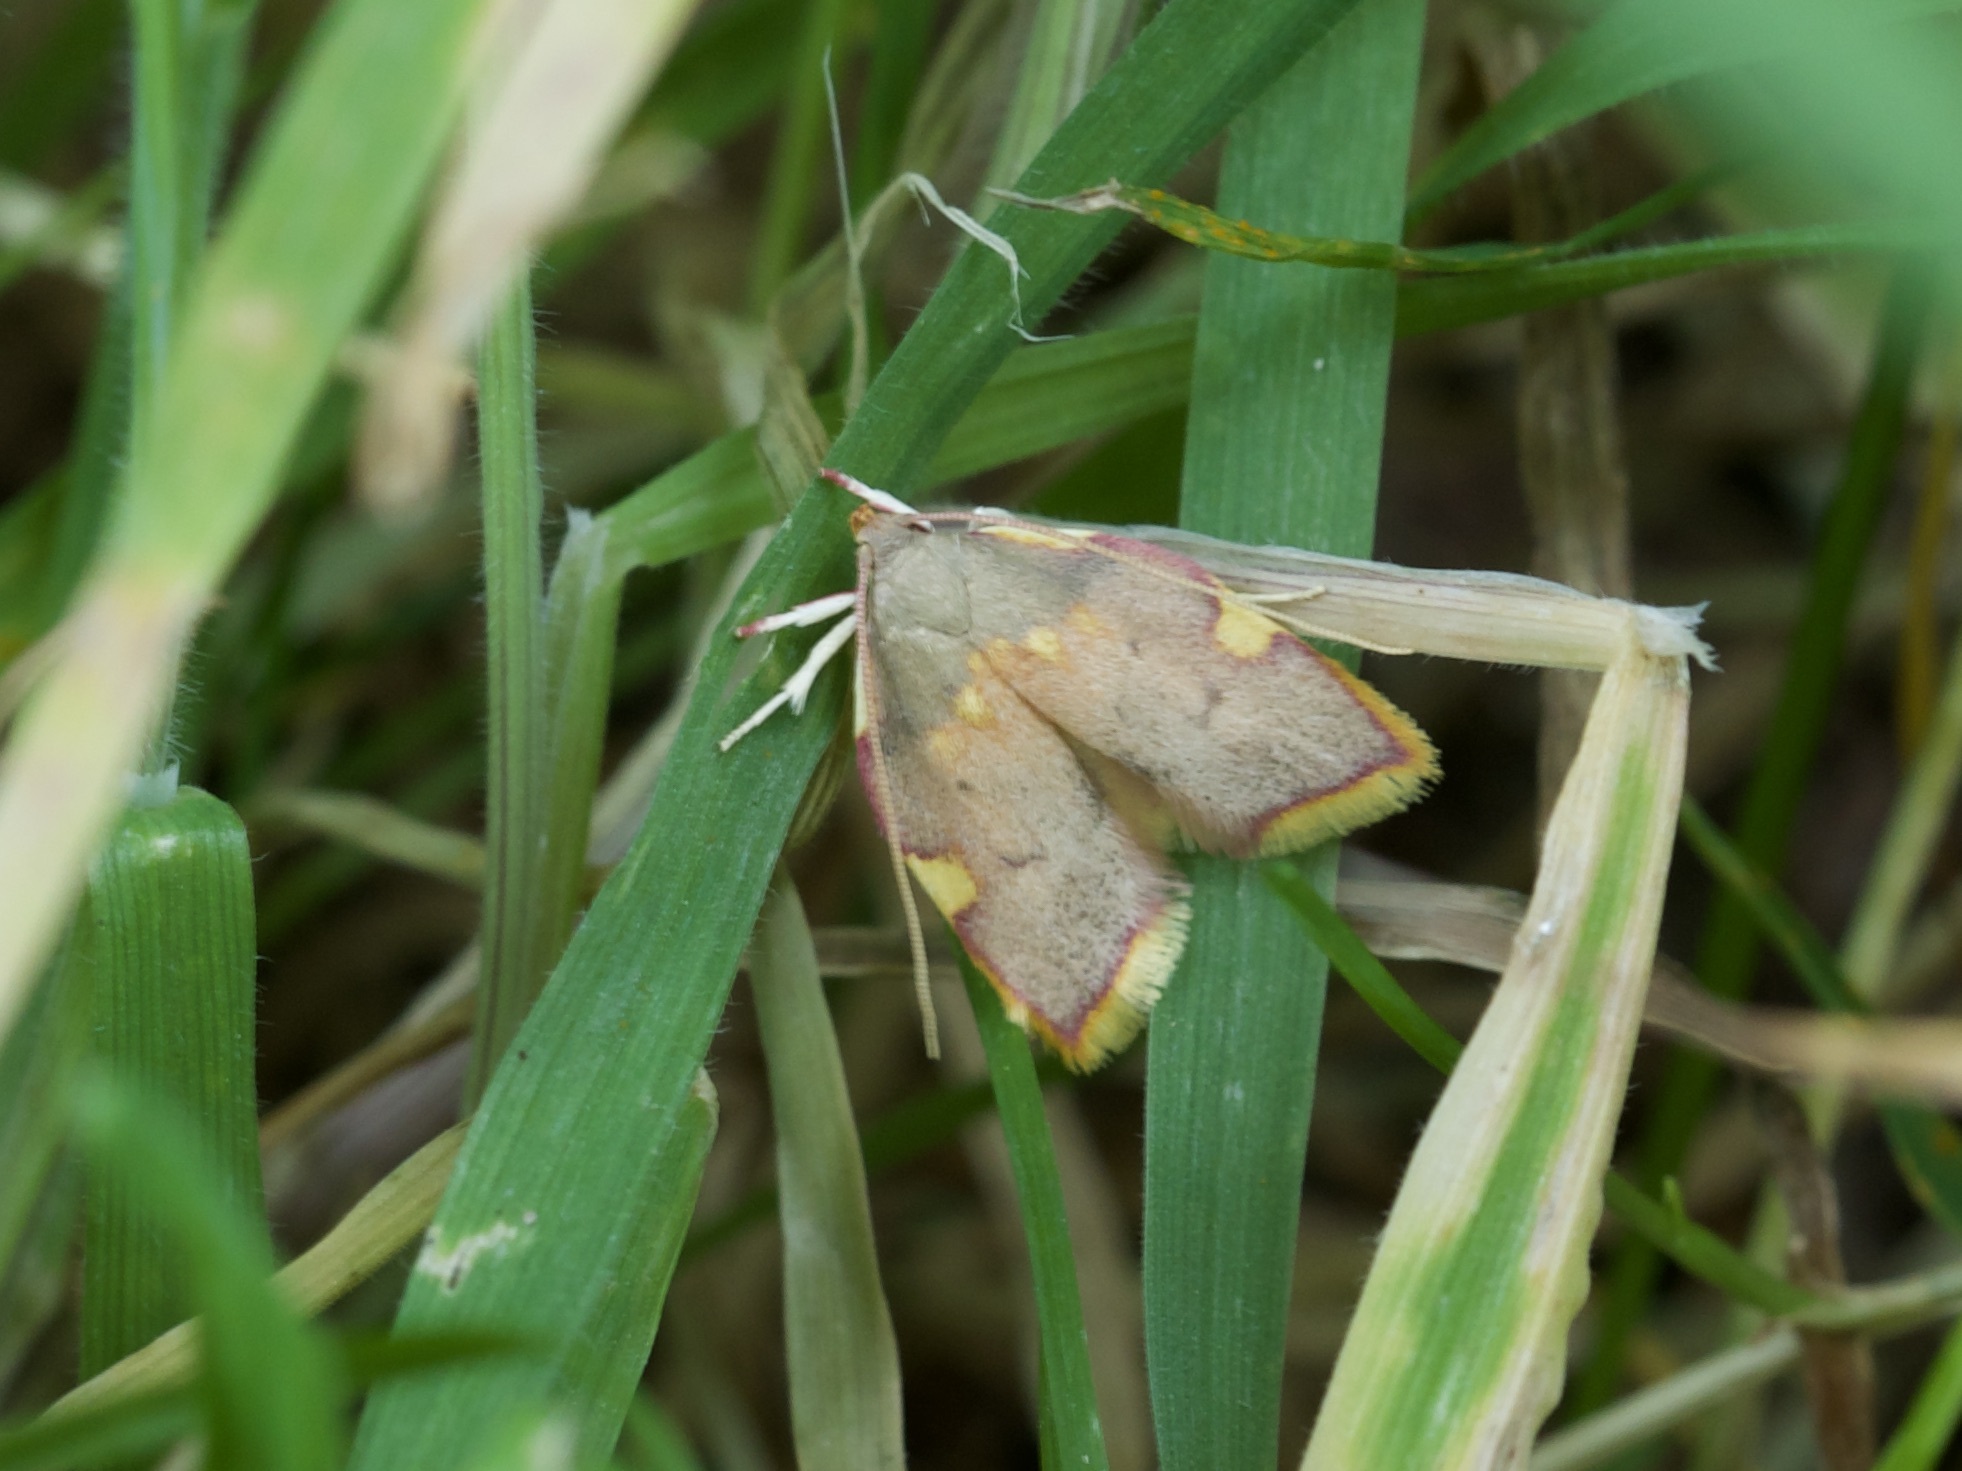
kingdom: Animalia
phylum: Arthropoda
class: Insecta
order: Lepidoptera
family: Peleopodidae
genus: Carcina
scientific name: Carcina quercana
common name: Moth
